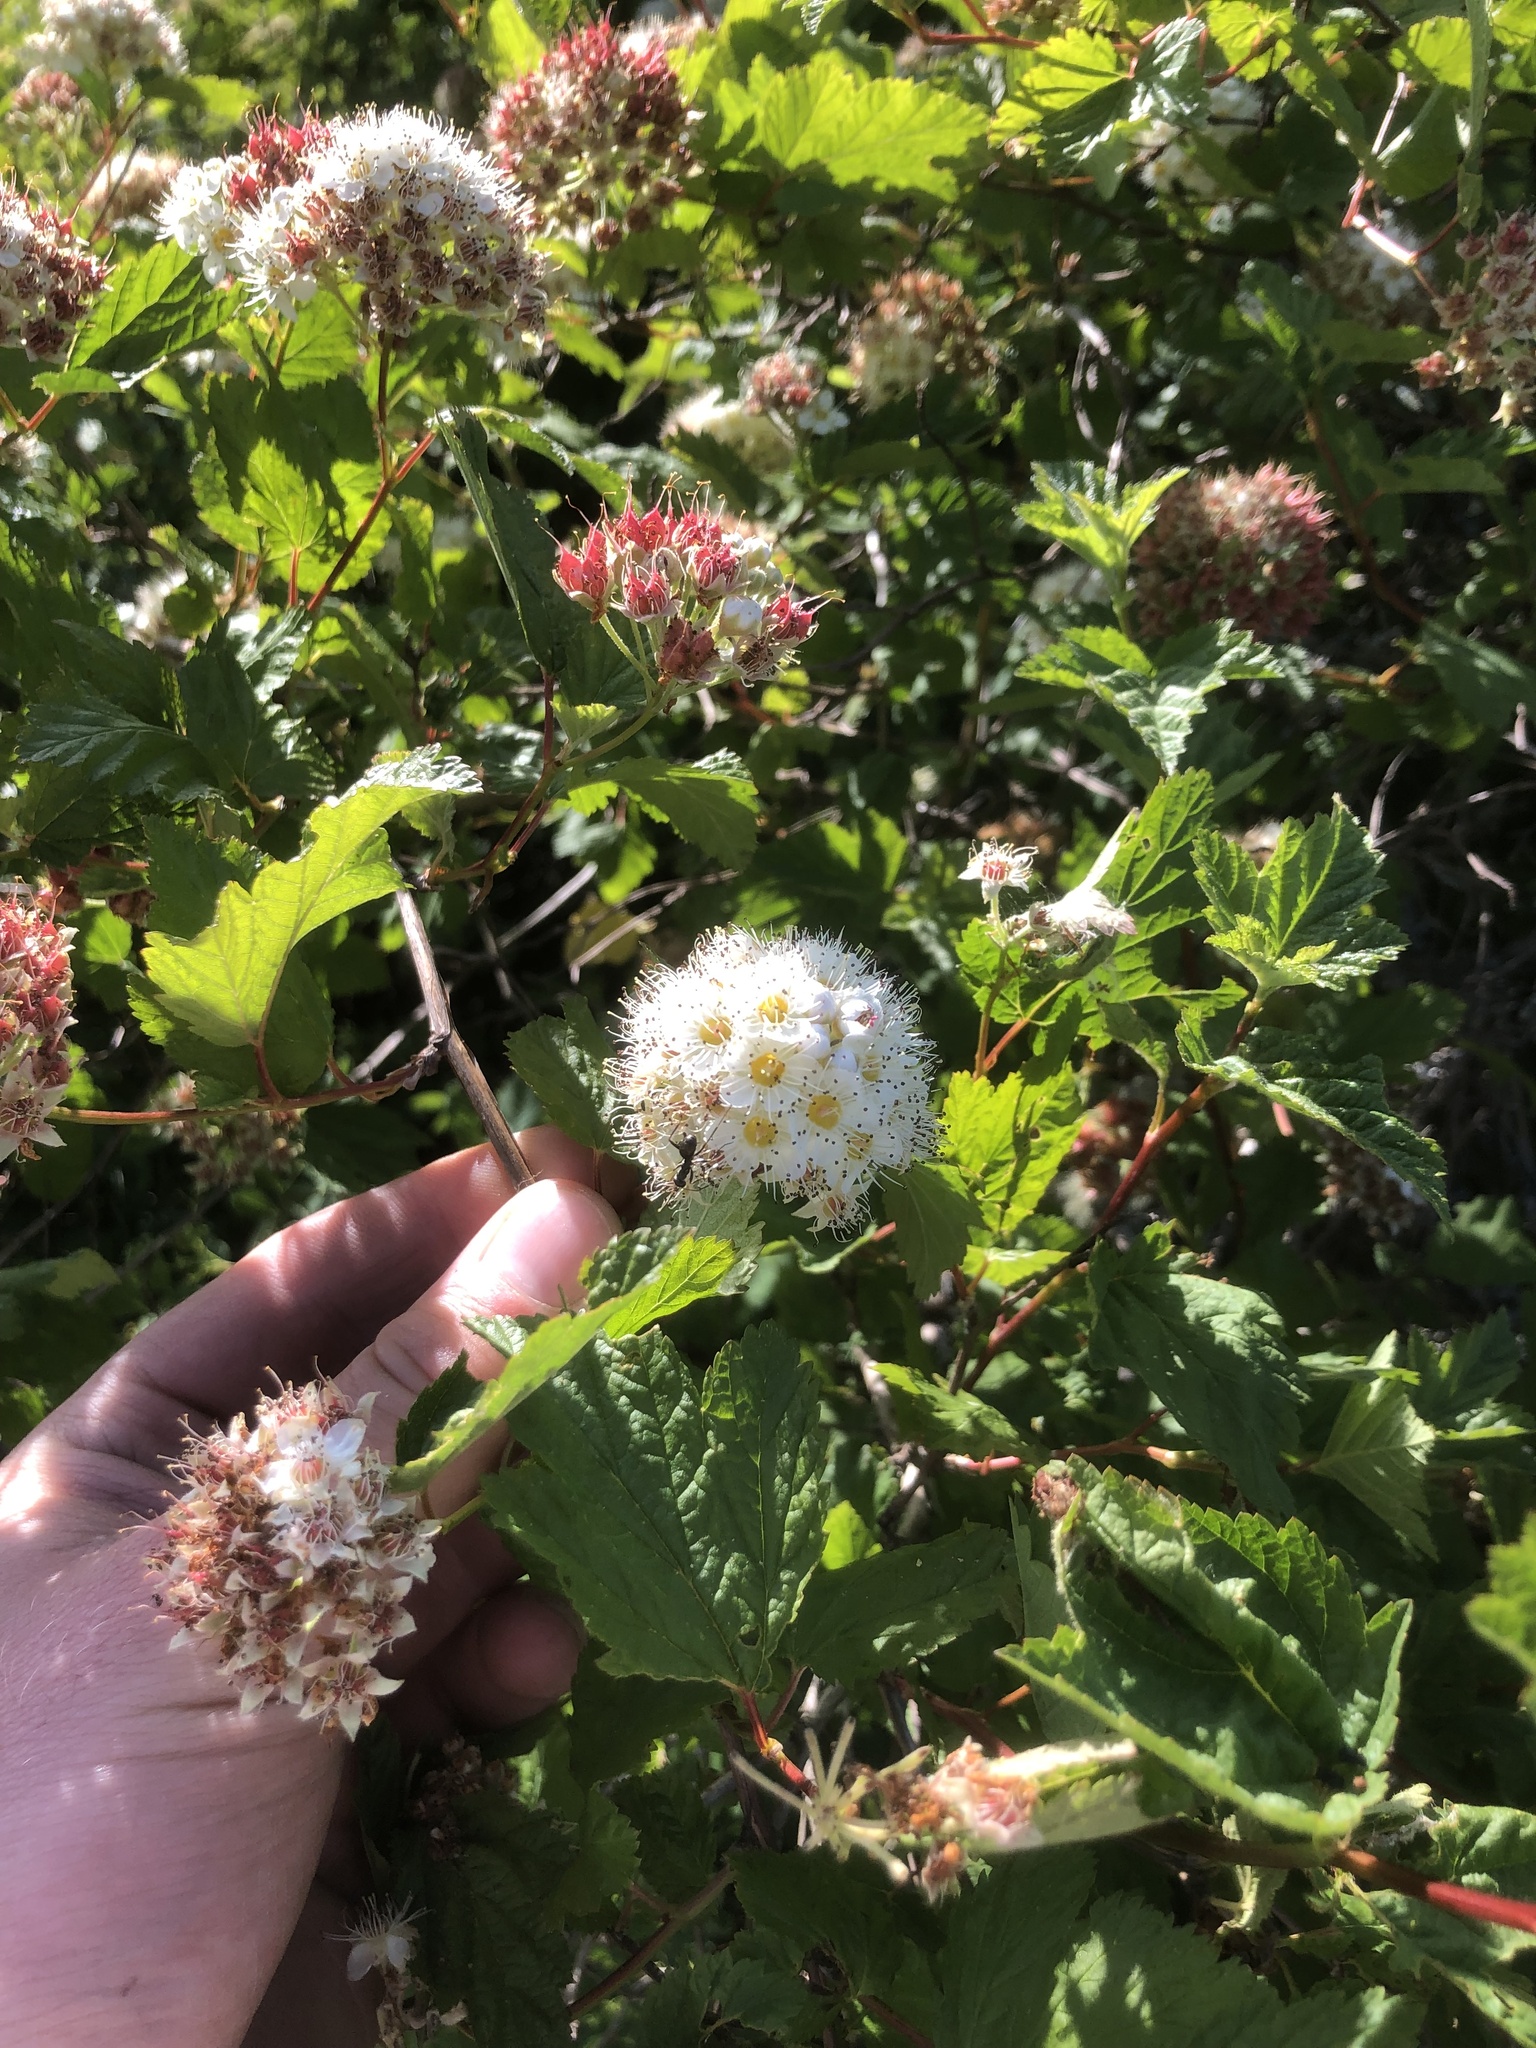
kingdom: Plantae
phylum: Tracheophyta
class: Magnoliopsida
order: Rosales
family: Rosaceae
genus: Physocarpus
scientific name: Physocarpus capitatus
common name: Pacific ninebark
